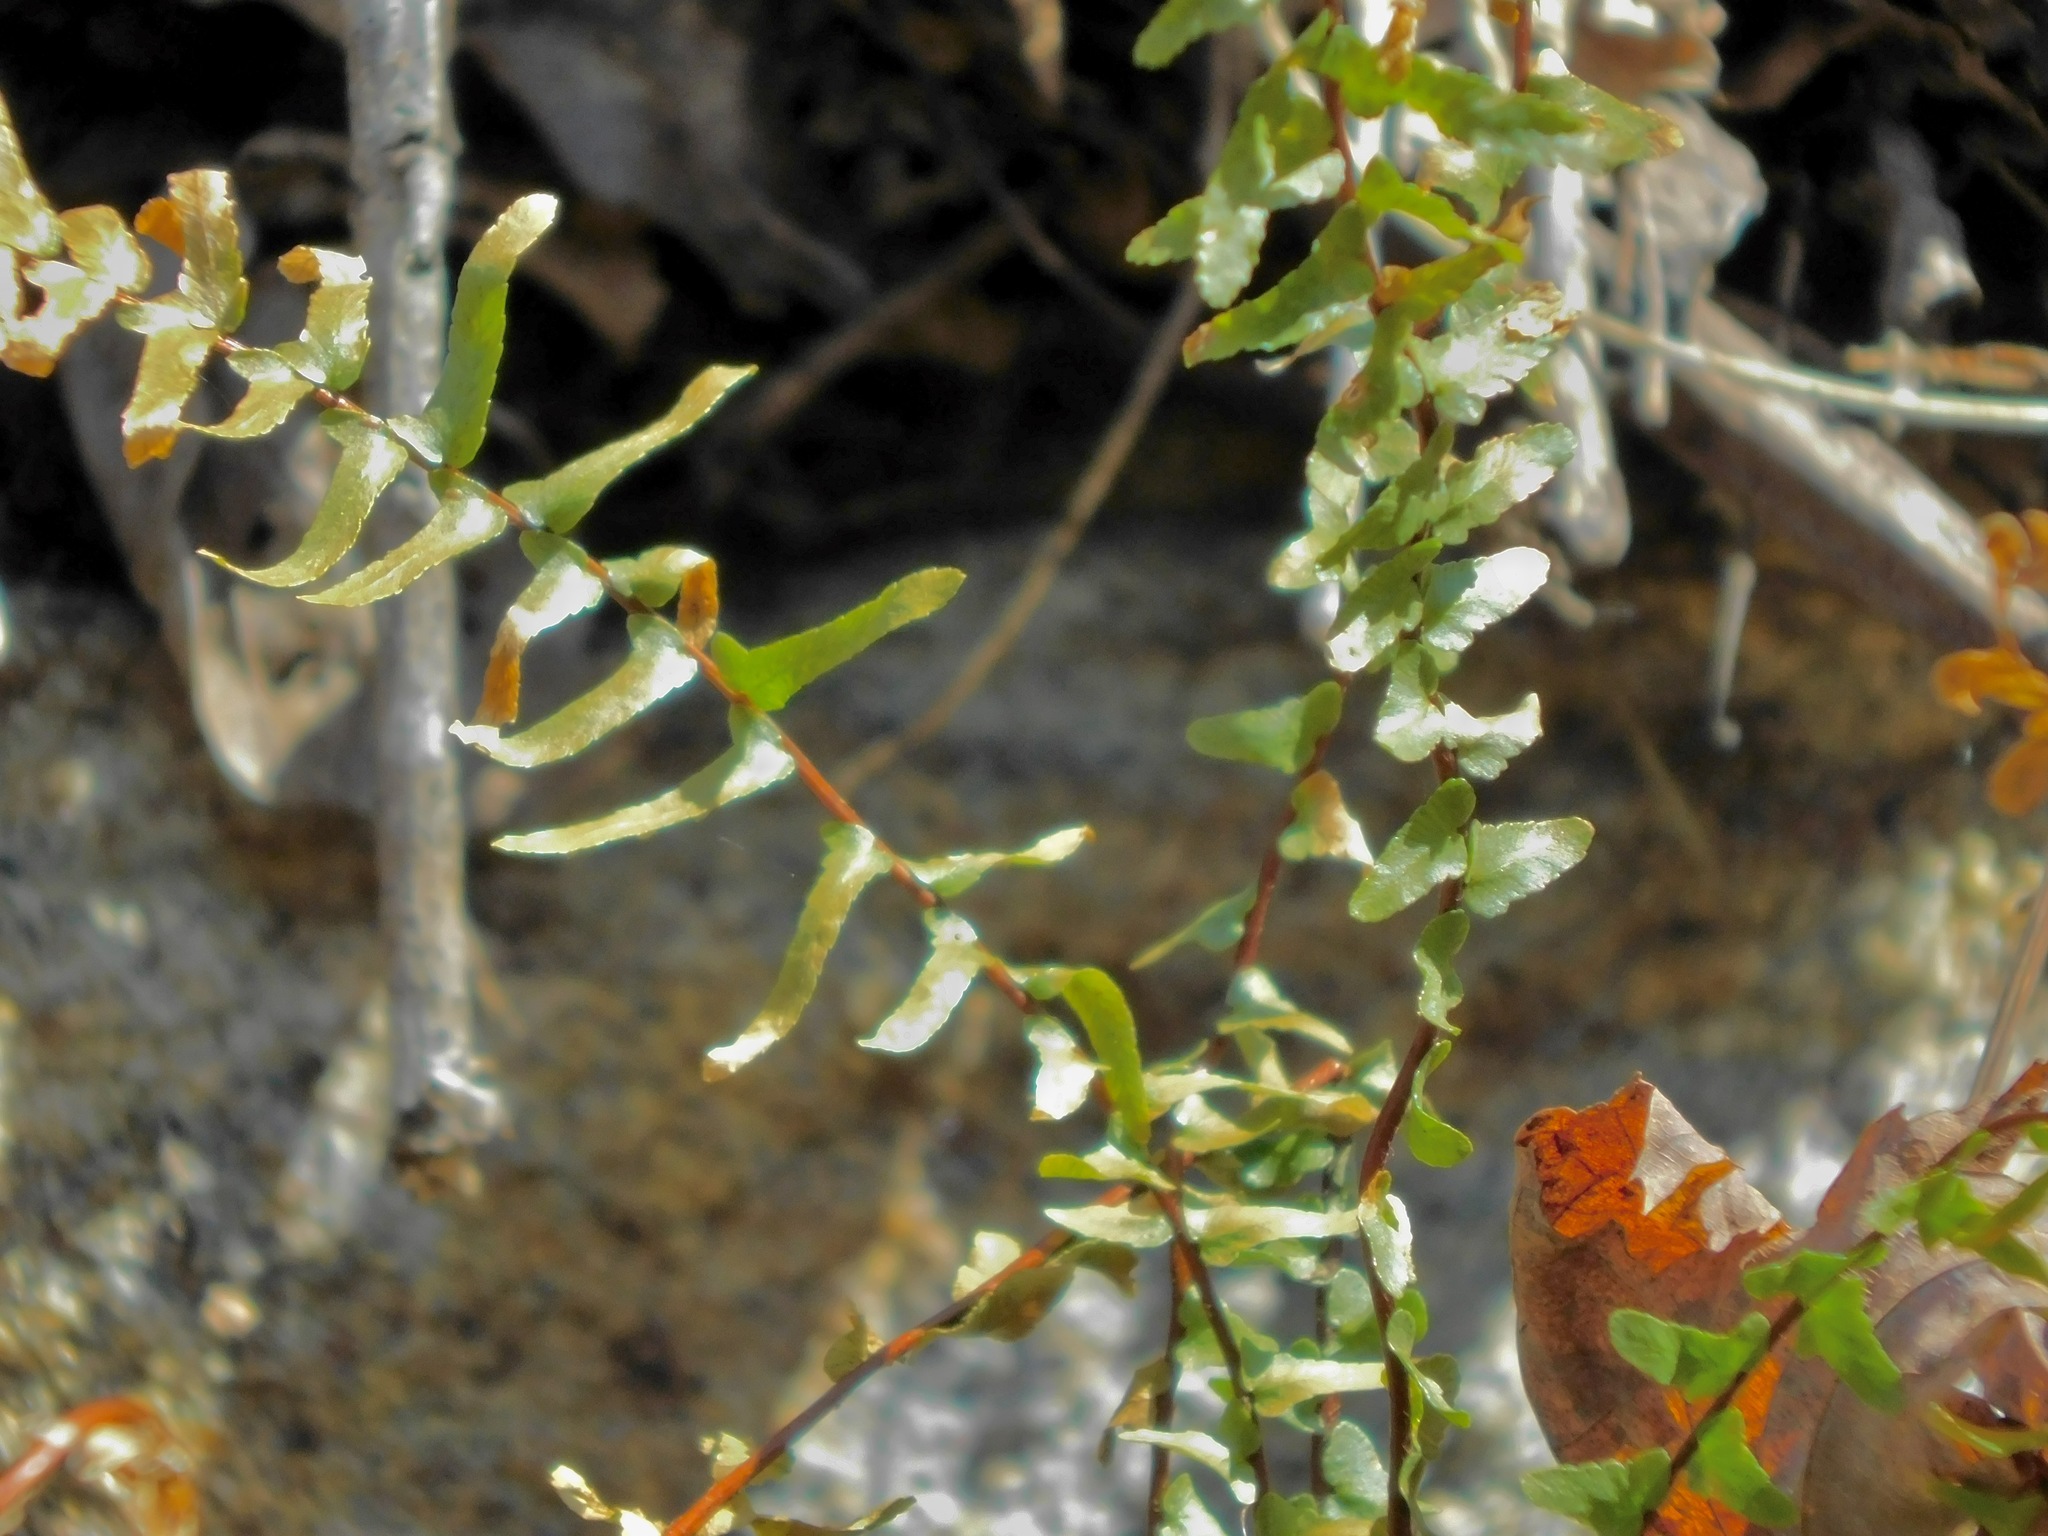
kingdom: Plantae
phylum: Tracheophyta
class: Polypodiopsida
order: Polypodiales
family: Aspleniaceae
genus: Asplenium
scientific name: Asplenium platyneuron
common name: Ebony spleenwort
